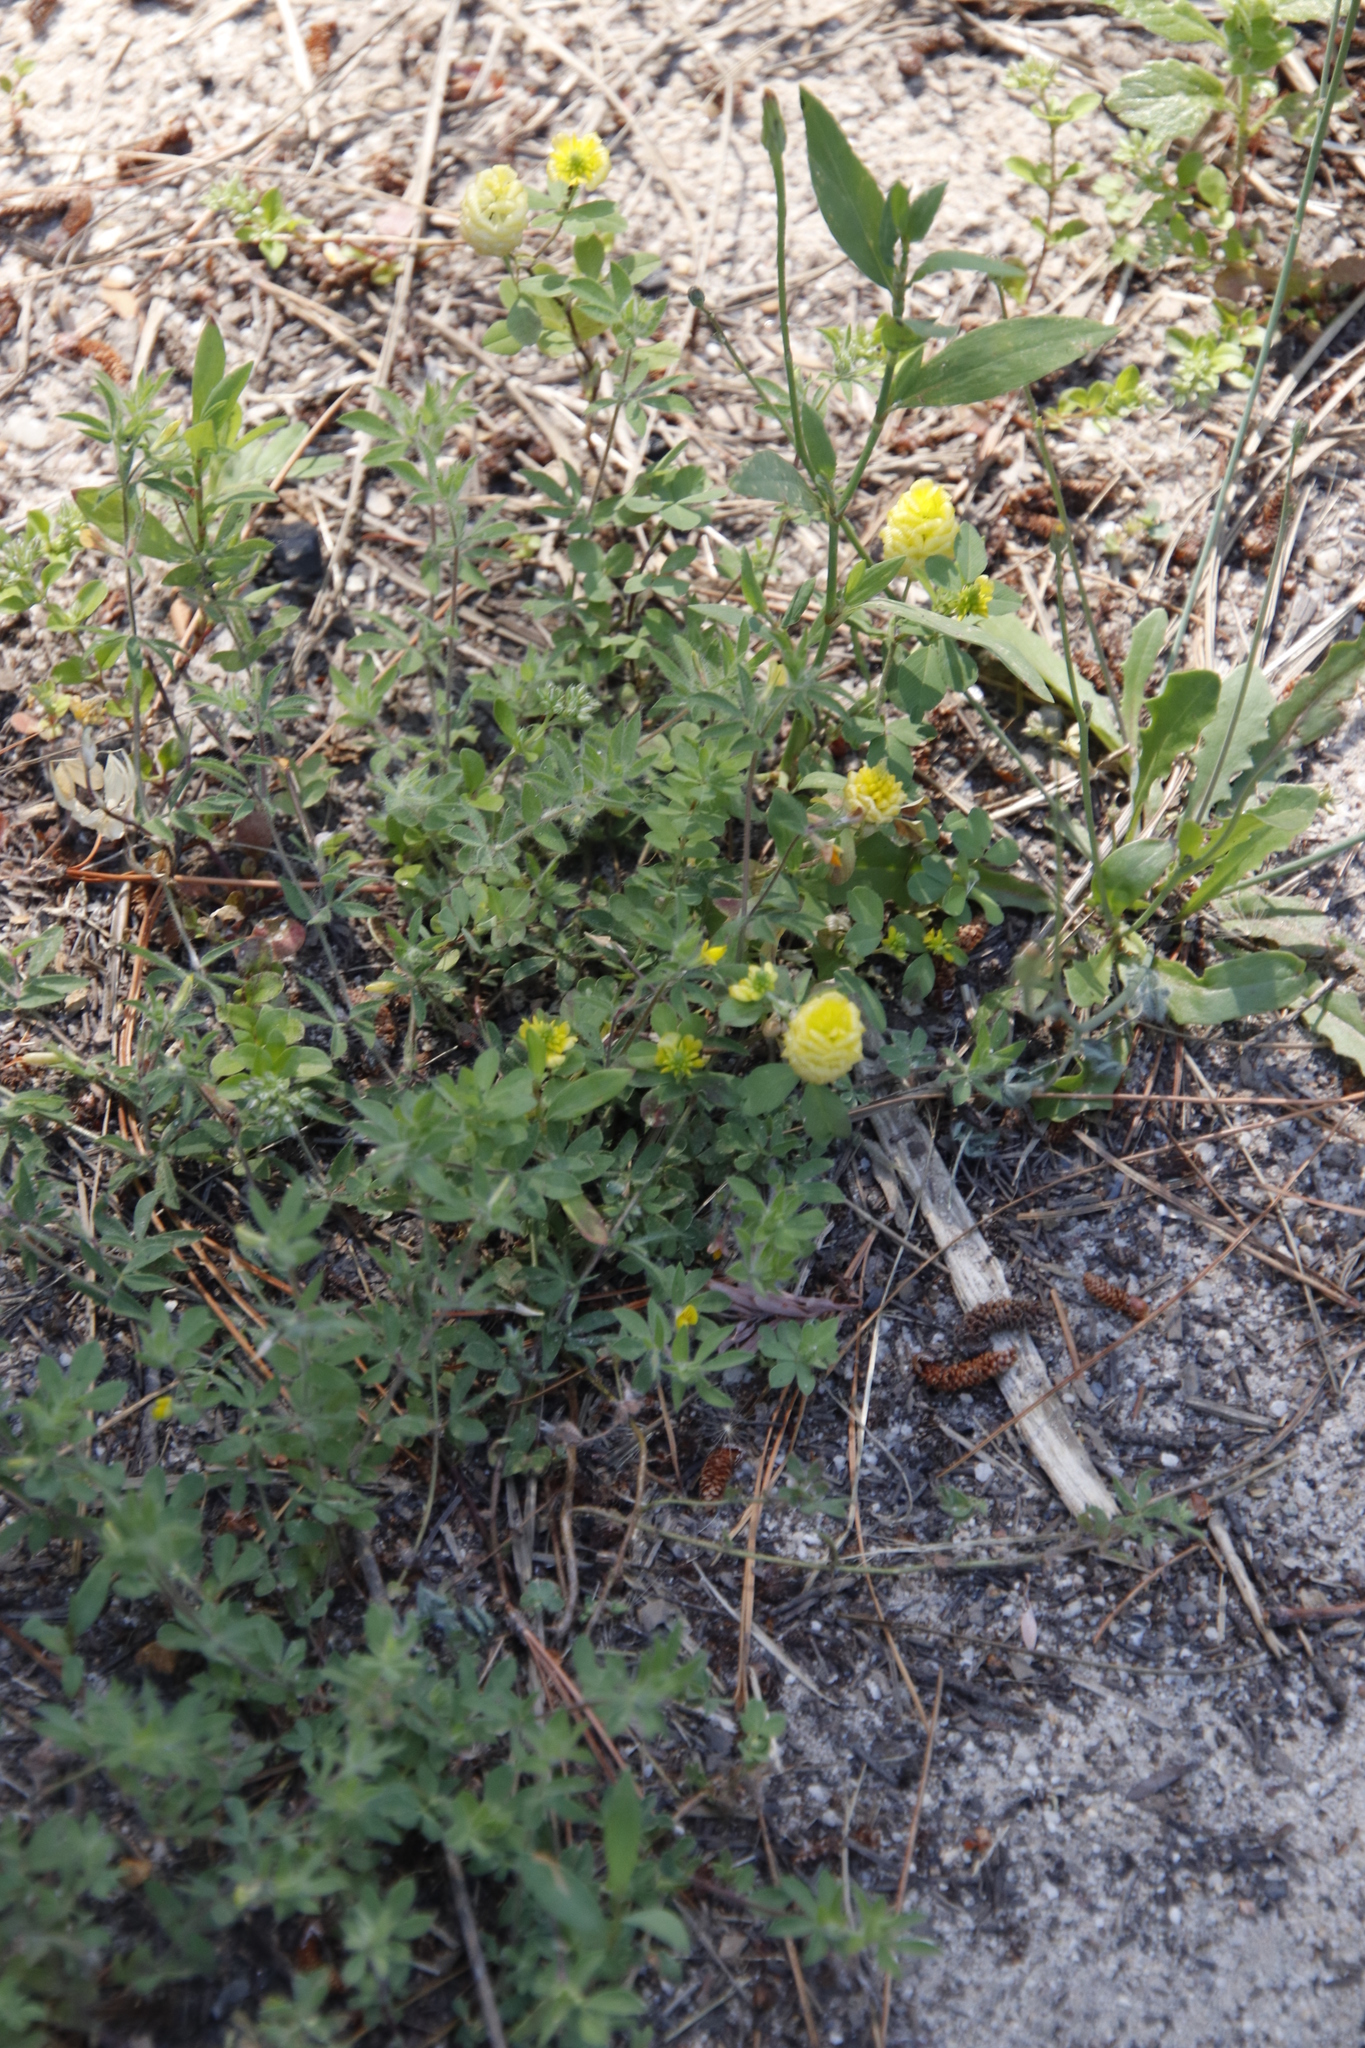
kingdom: Plantae
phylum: Tracheophyta
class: Magnoliopsida
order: Fabales
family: Fabaceae
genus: Trifolium
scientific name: Trifolium campestre
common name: Field clover
